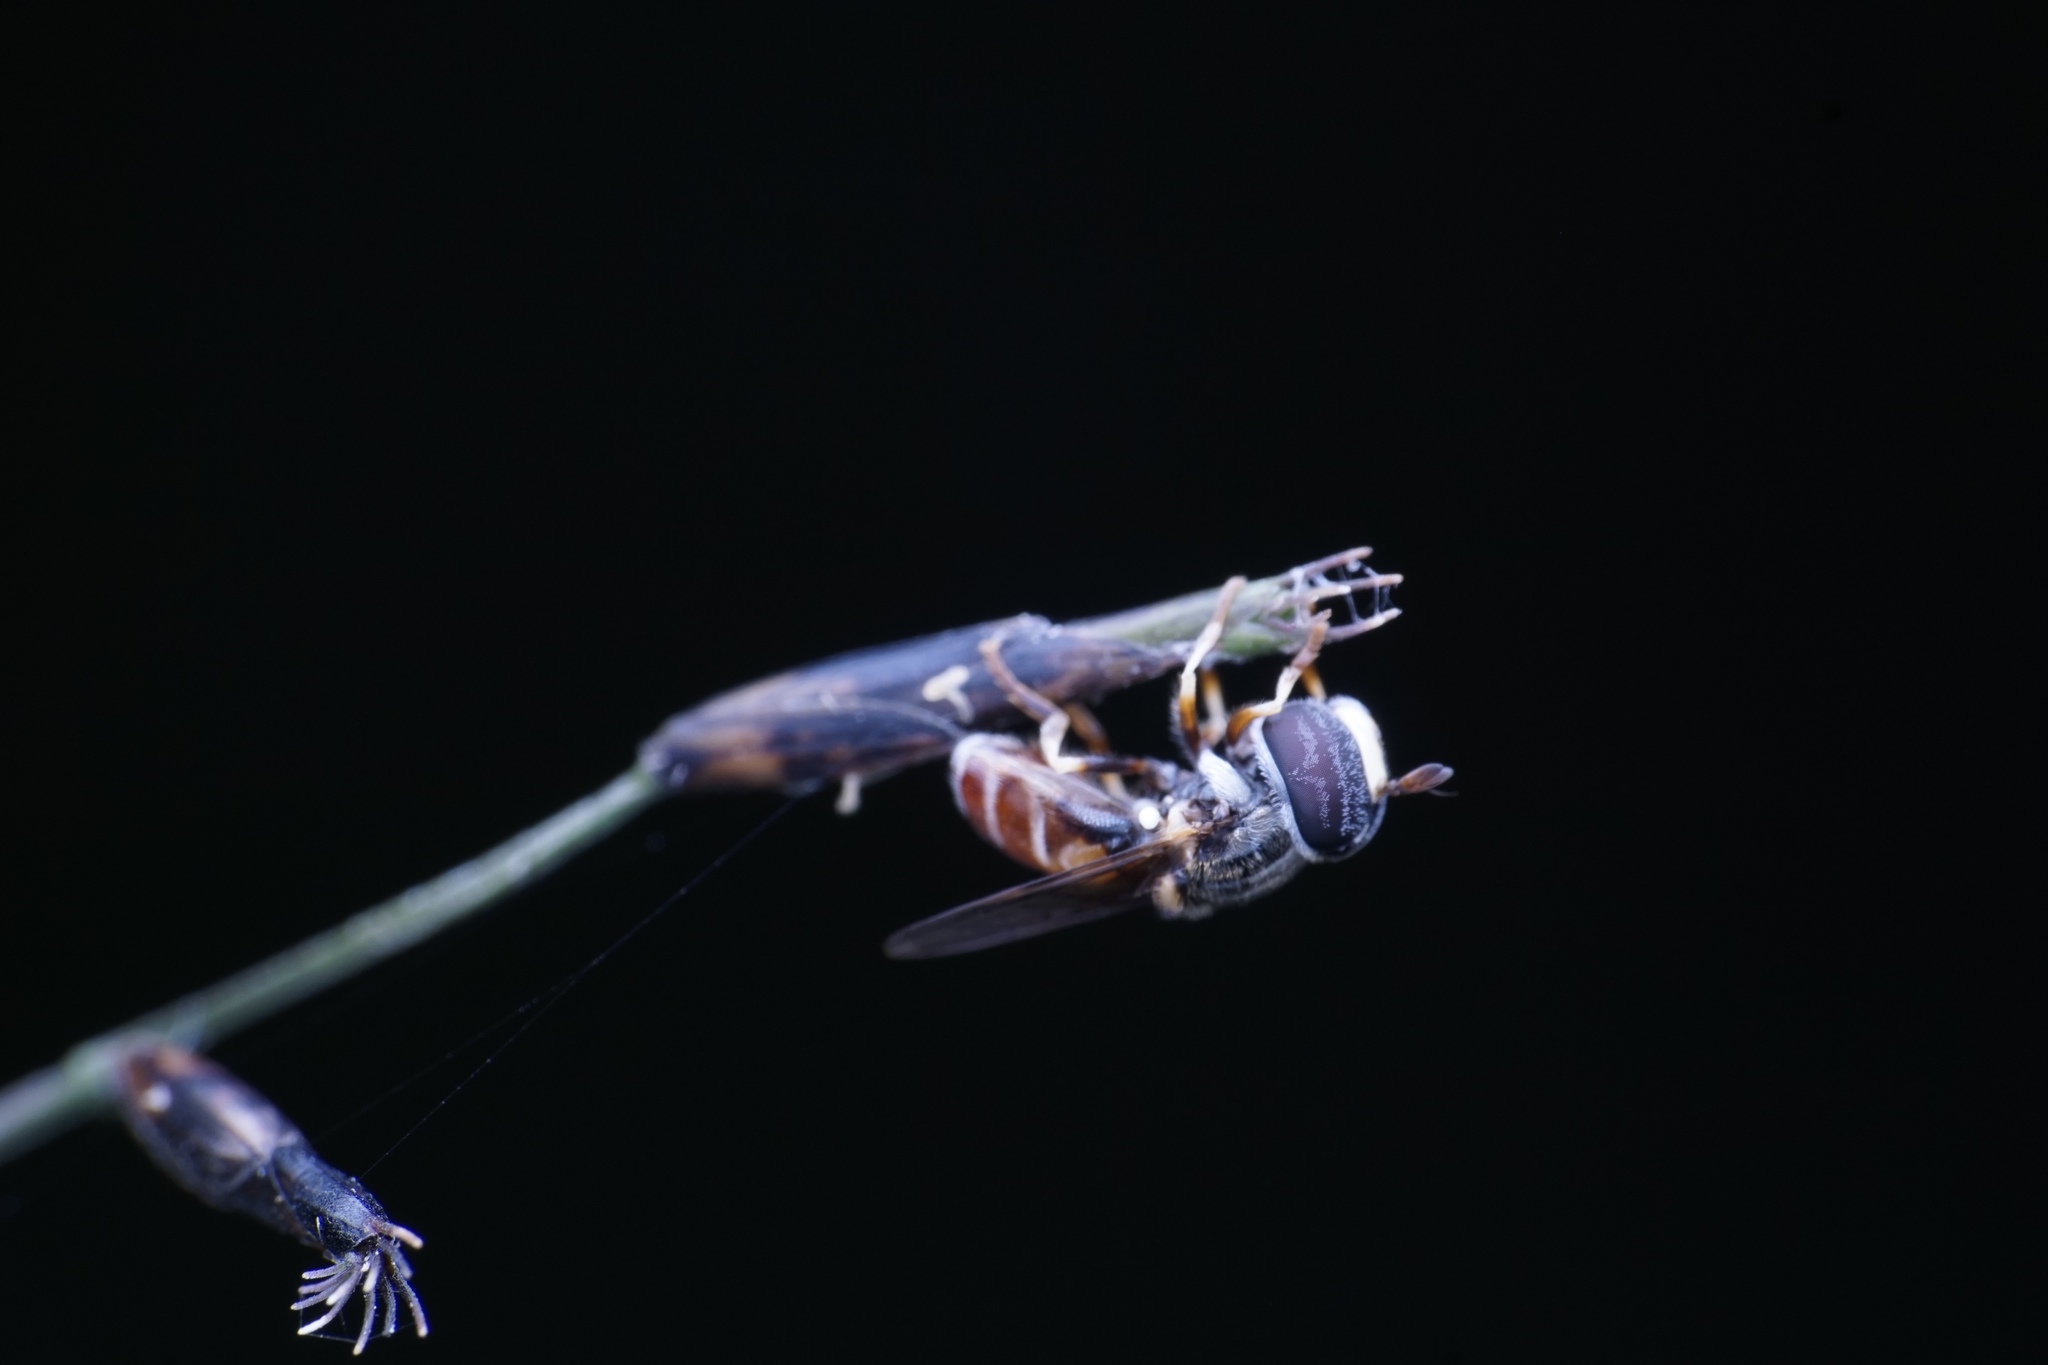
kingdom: Animalia
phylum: Arthropoda
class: Insecta
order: Diptera
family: Syrphidae
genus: Paragus
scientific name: Paragus crenulatus
